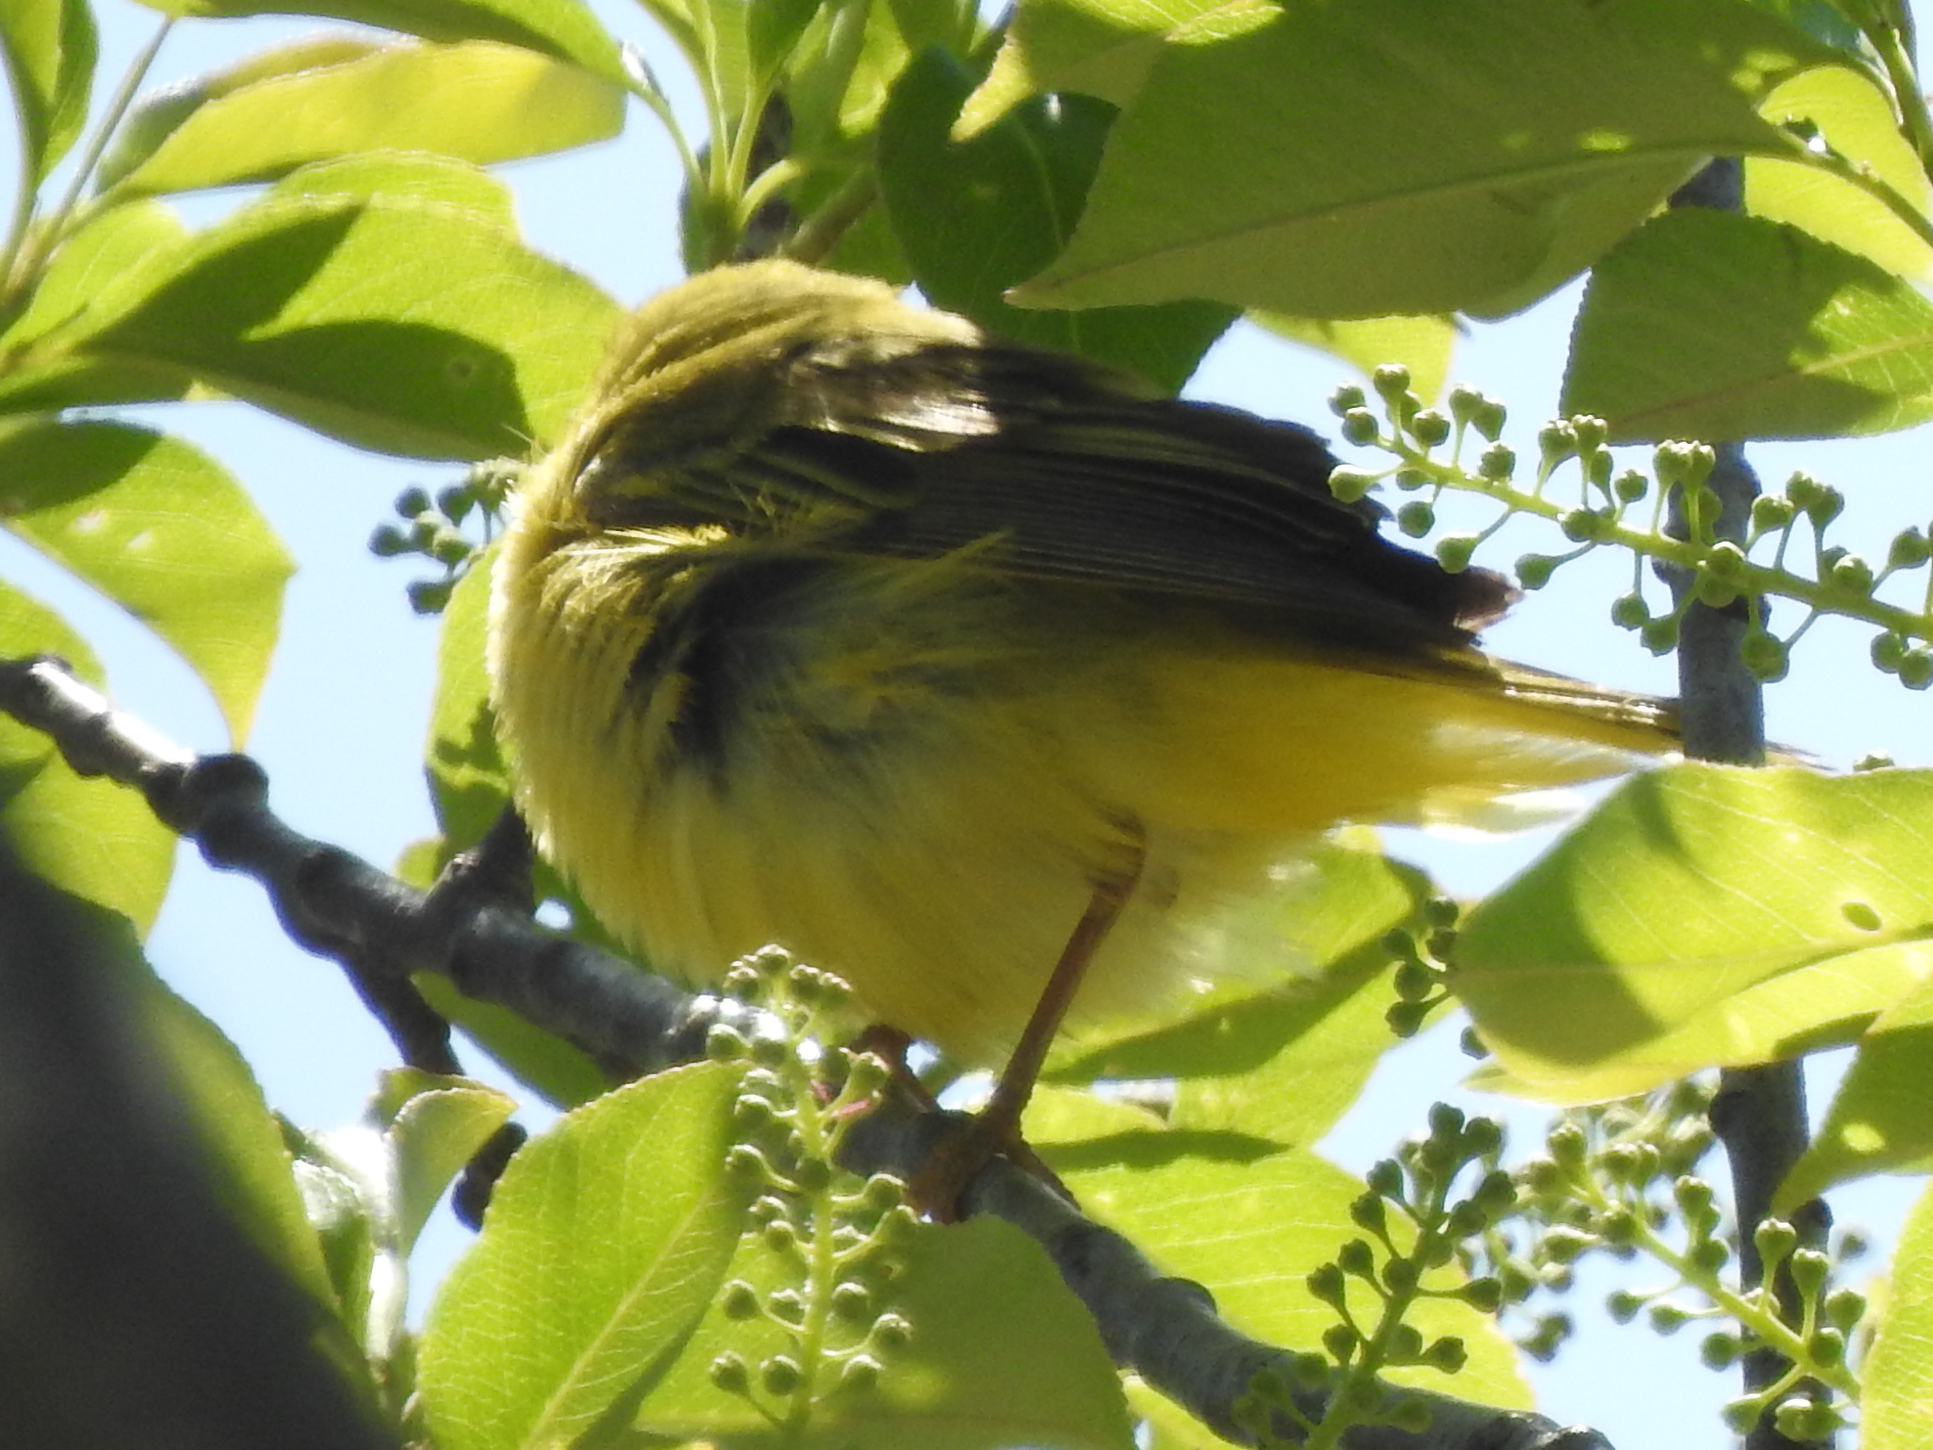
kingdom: Animalia
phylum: Chordata
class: Aves
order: Passeriformes
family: Parulidae
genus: Setophaga
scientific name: Setophaga petechia
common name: Yellow warbler
